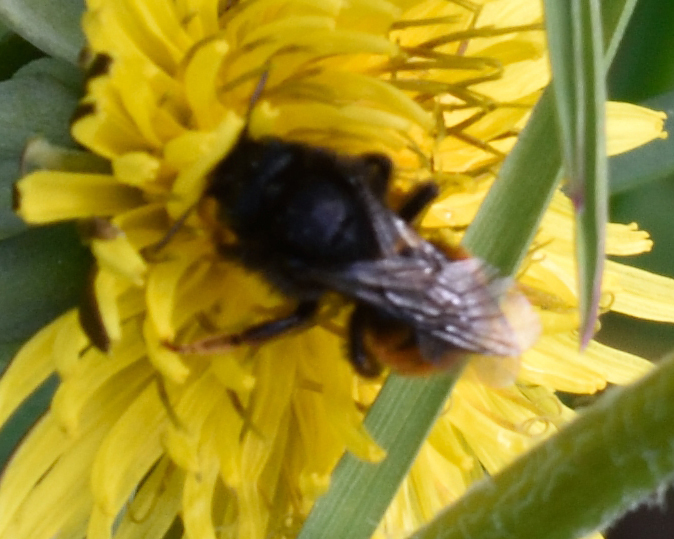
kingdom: Animalia
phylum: Arthropoda
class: Insecta
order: Hymenoptera
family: Megachilidae
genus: Osmia
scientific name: Osmia bicolor
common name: Red-tailed mason bee
